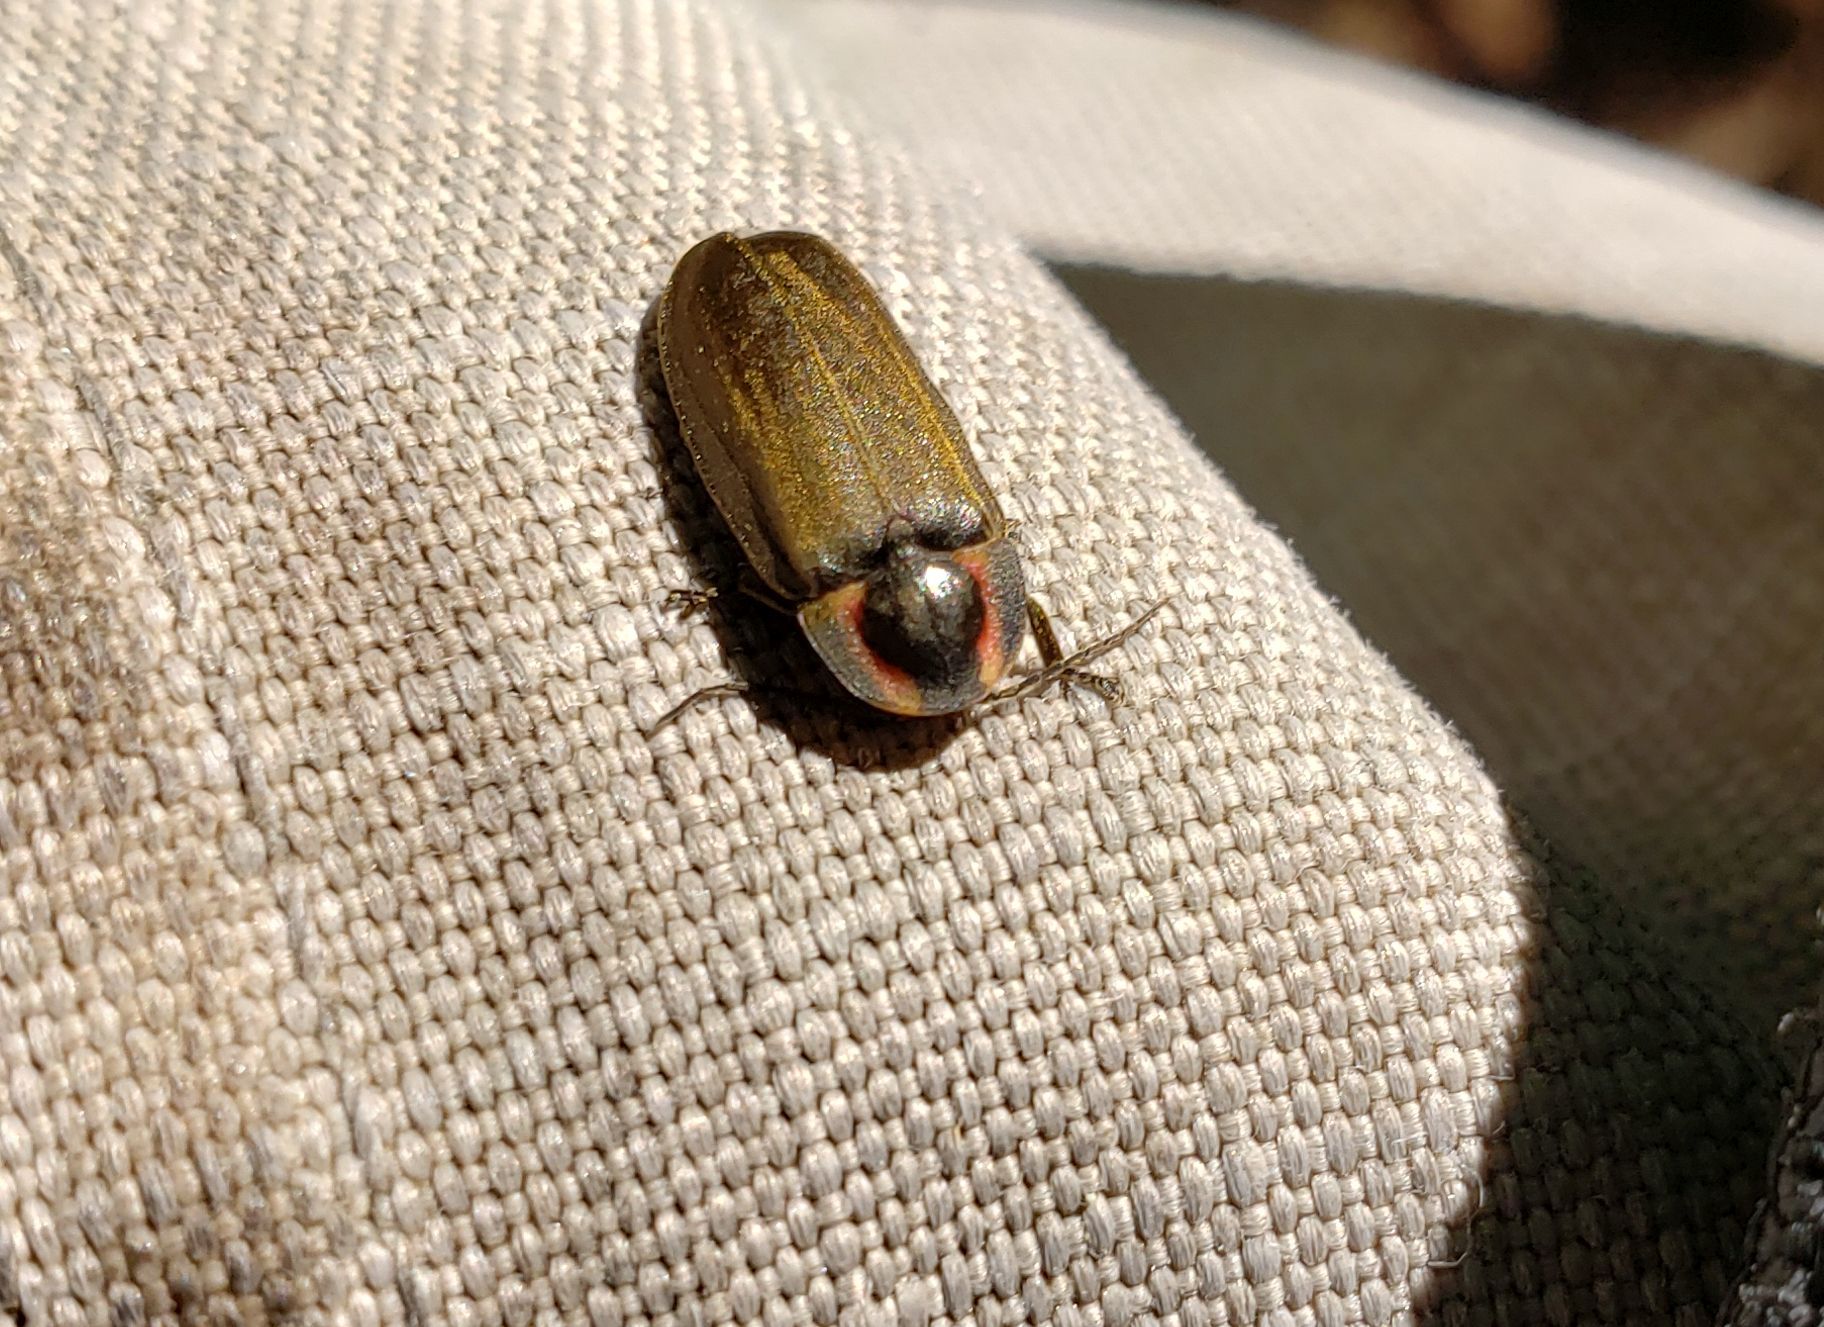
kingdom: Animalia
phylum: Arthropoda
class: Insecta
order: Coleoptera
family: Lampyridae
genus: Photinus
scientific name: Photinus corrusca
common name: Winter firefly
